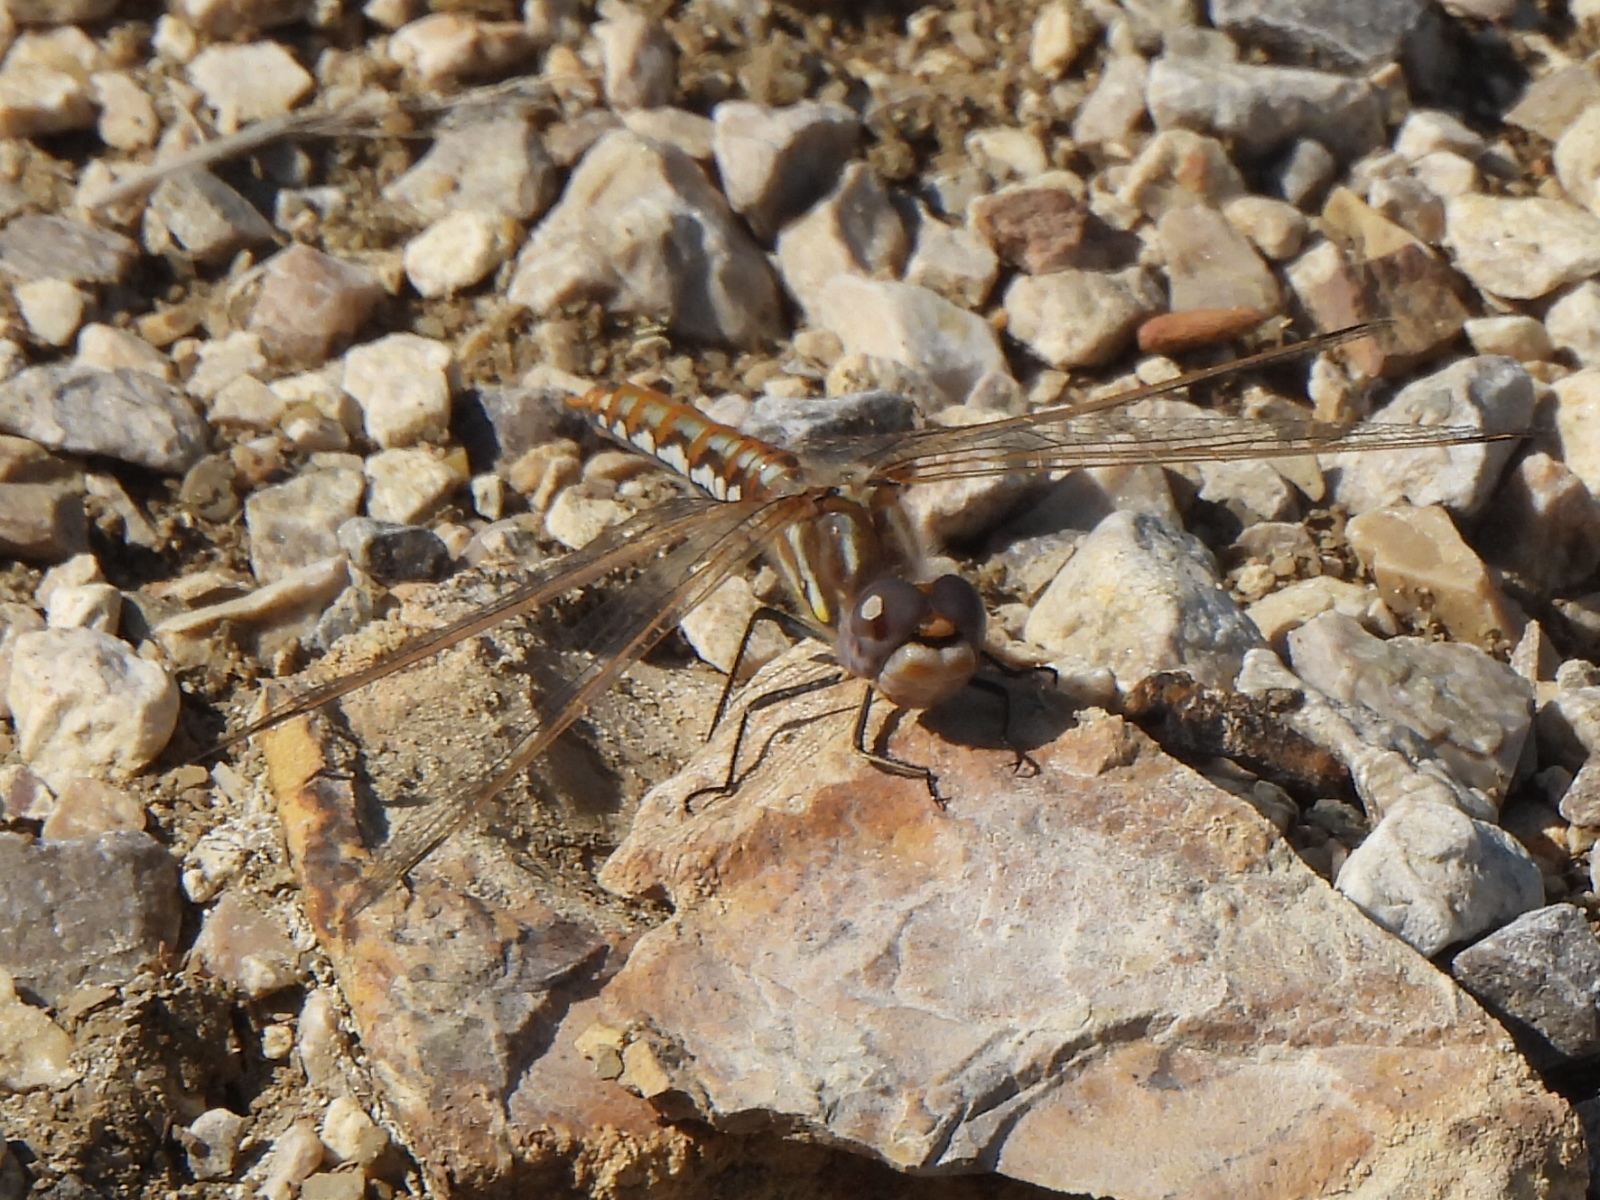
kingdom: Animalia
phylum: Arthropoda
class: Insecta
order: Odonata
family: Libellulidae
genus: Sympetrum
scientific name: Sympetrum corruptum
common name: Variegated meadowhawk
